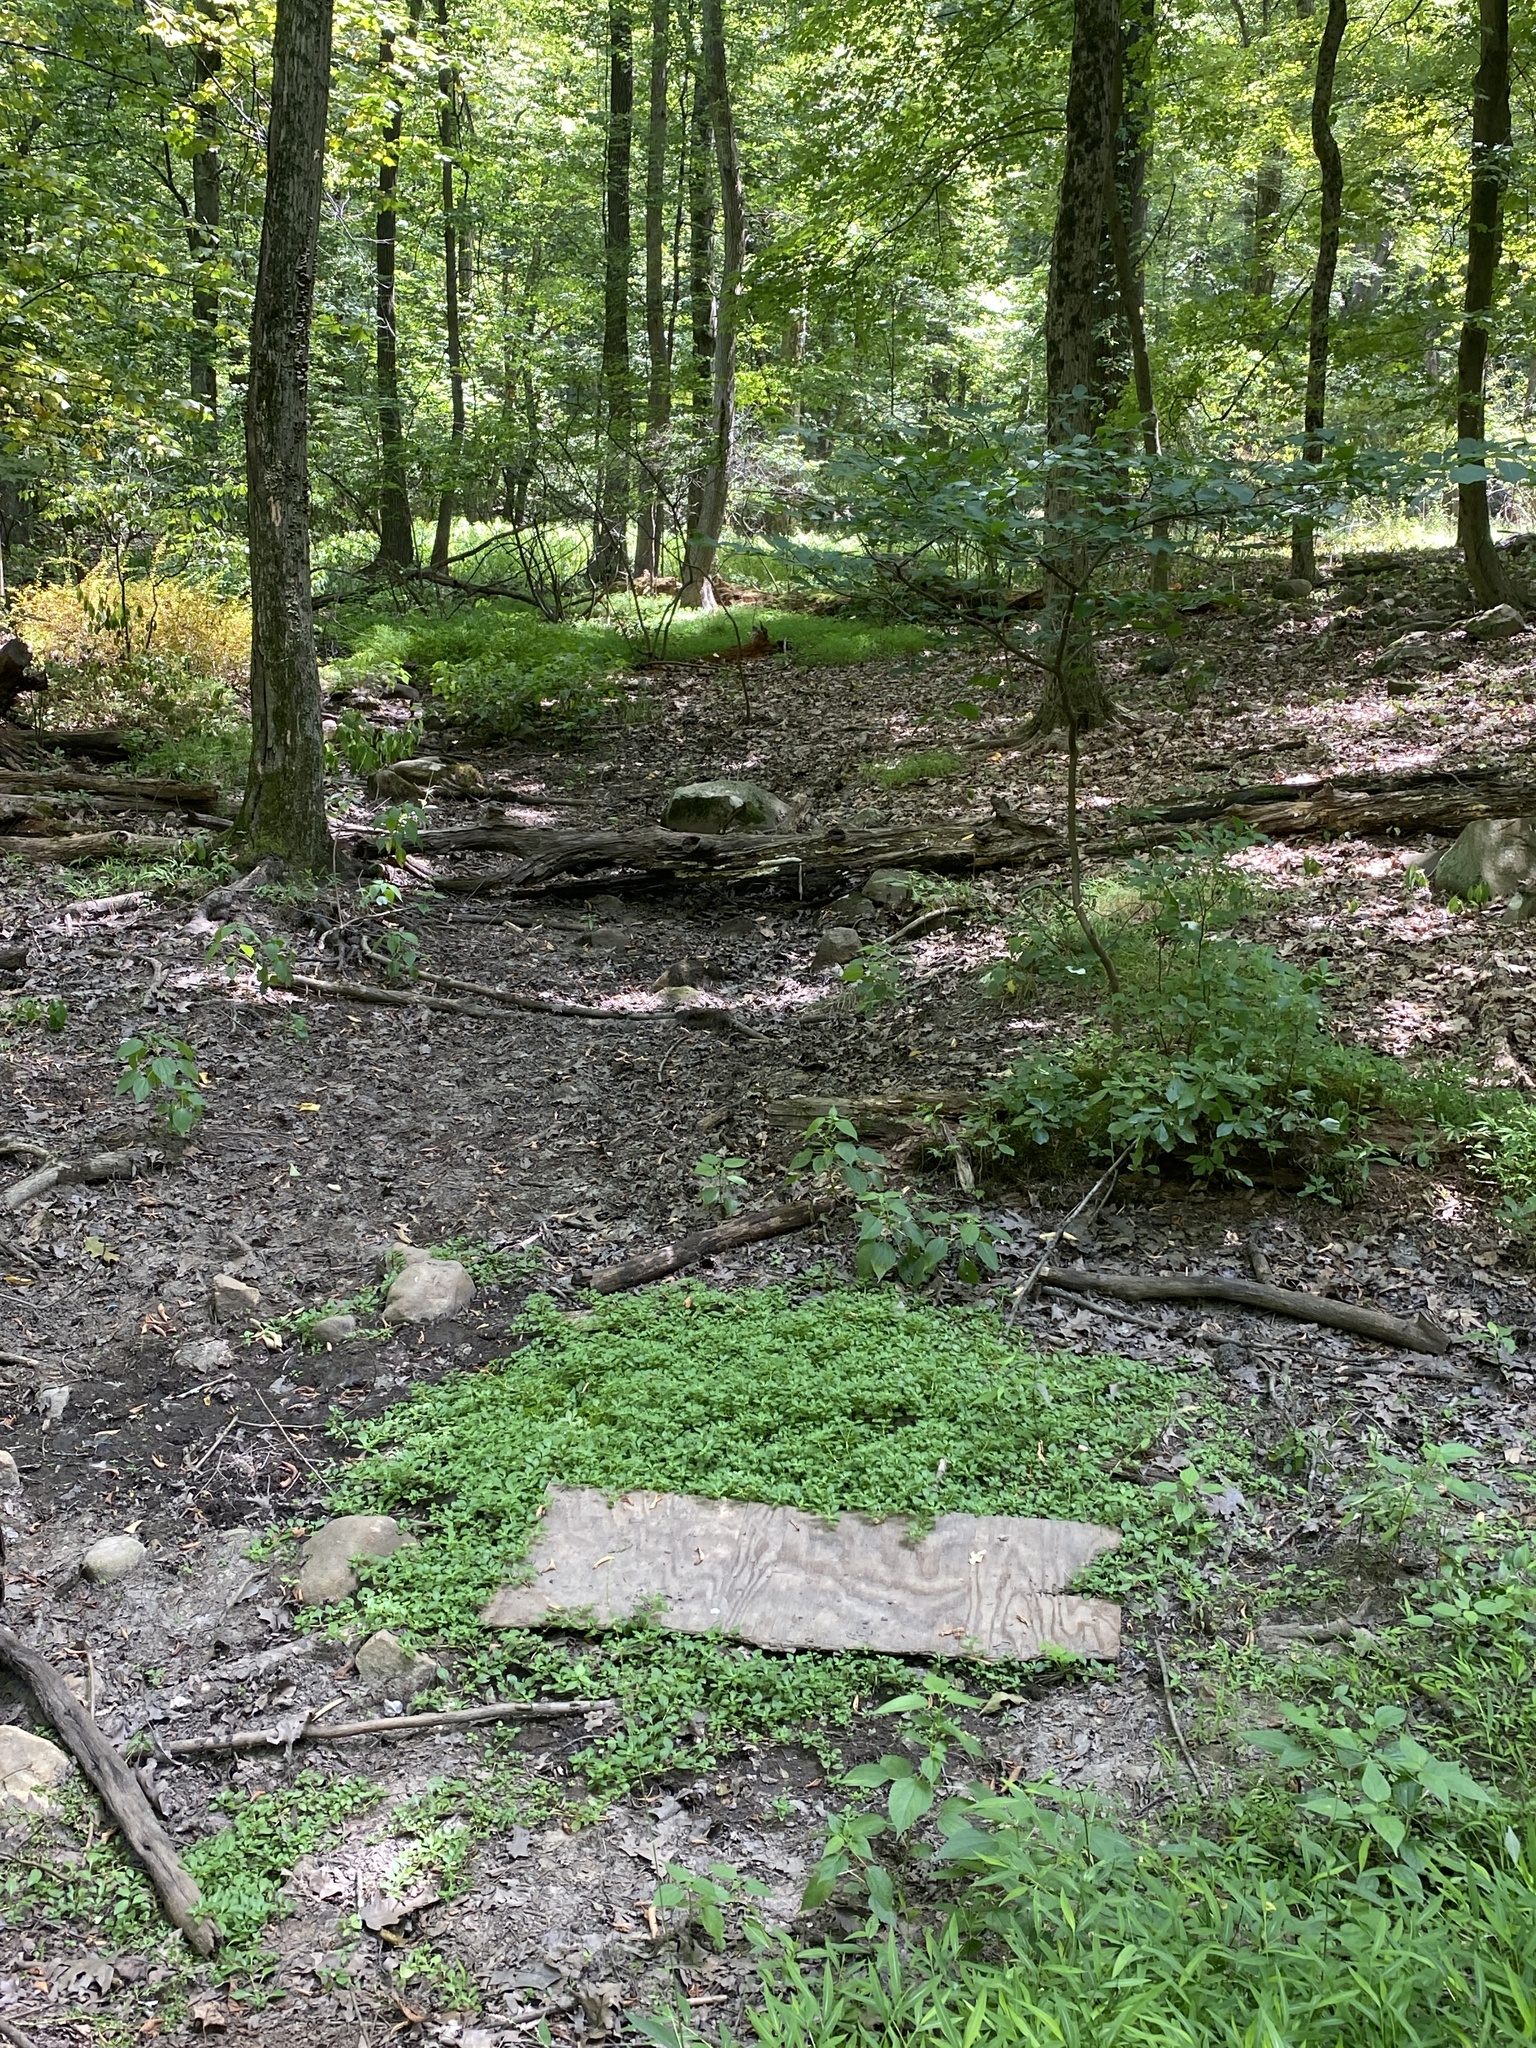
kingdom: Plantae
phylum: Tracheophyta
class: Magnoliopsida
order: Myrtales
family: Onagraceae
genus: Ludwigia
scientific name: Ludwigia palustris
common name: Hampshire-purslane
